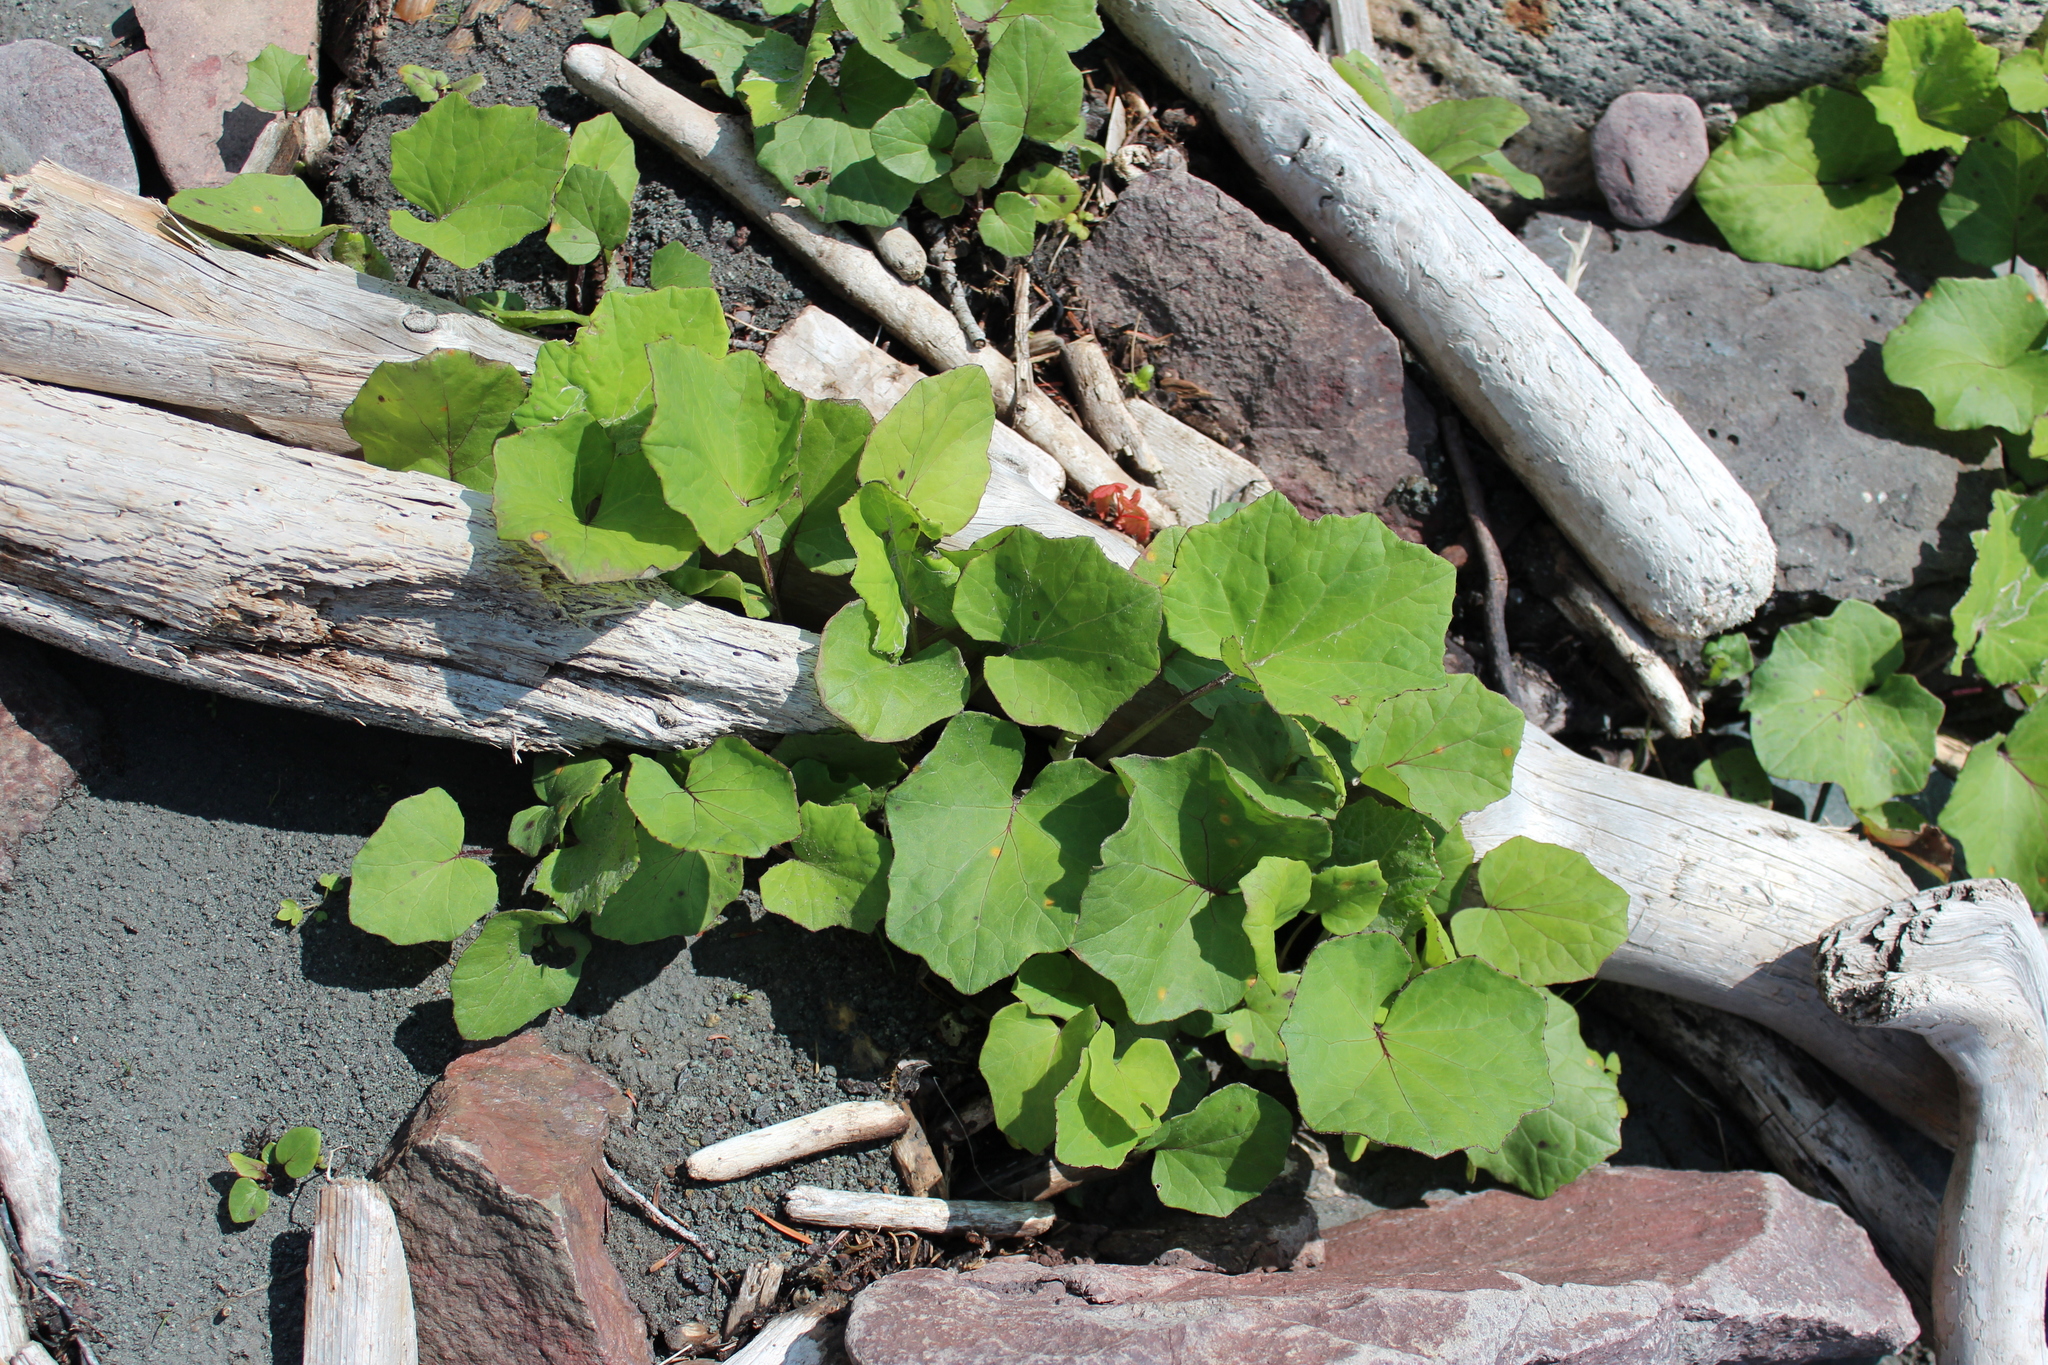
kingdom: Plantae
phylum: Tracheophyta
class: Magnoliopsida
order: Asterales
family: Asteraceae
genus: Tussilago
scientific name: Tussilago farfara
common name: Coltsfoot
